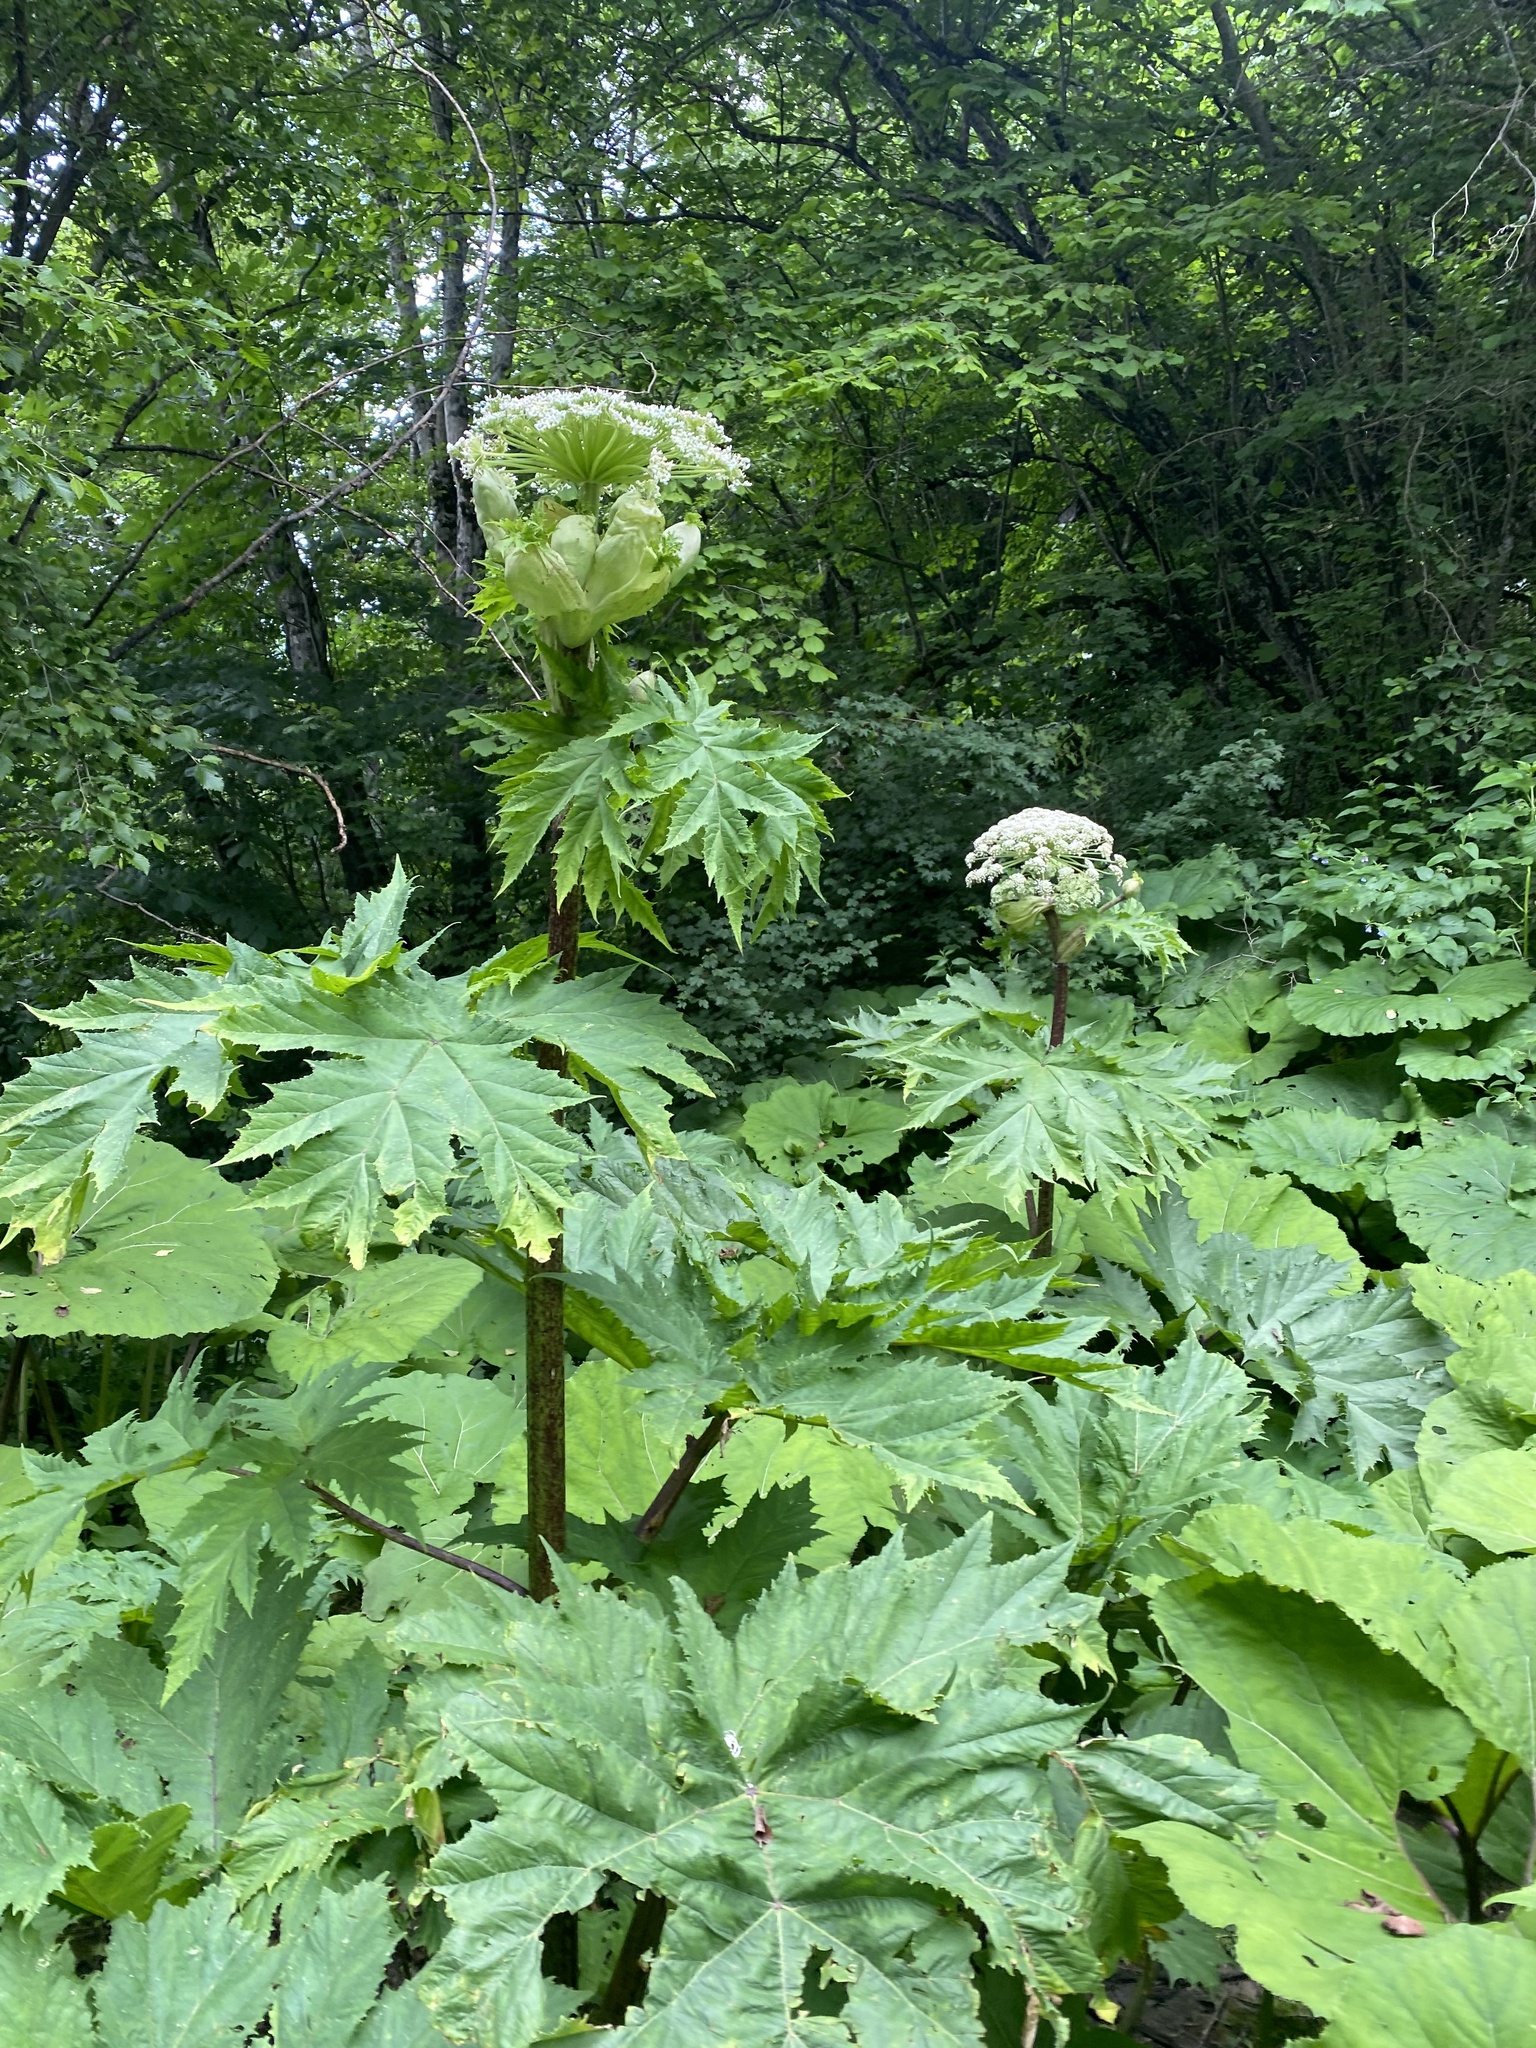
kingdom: Plantae
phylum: Tracheophyta
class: Magnoliopsida
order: Apiales
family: Apiaceae
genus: Heracleum
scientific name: Heracleum mantegazzianum
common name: Giant hogweed
